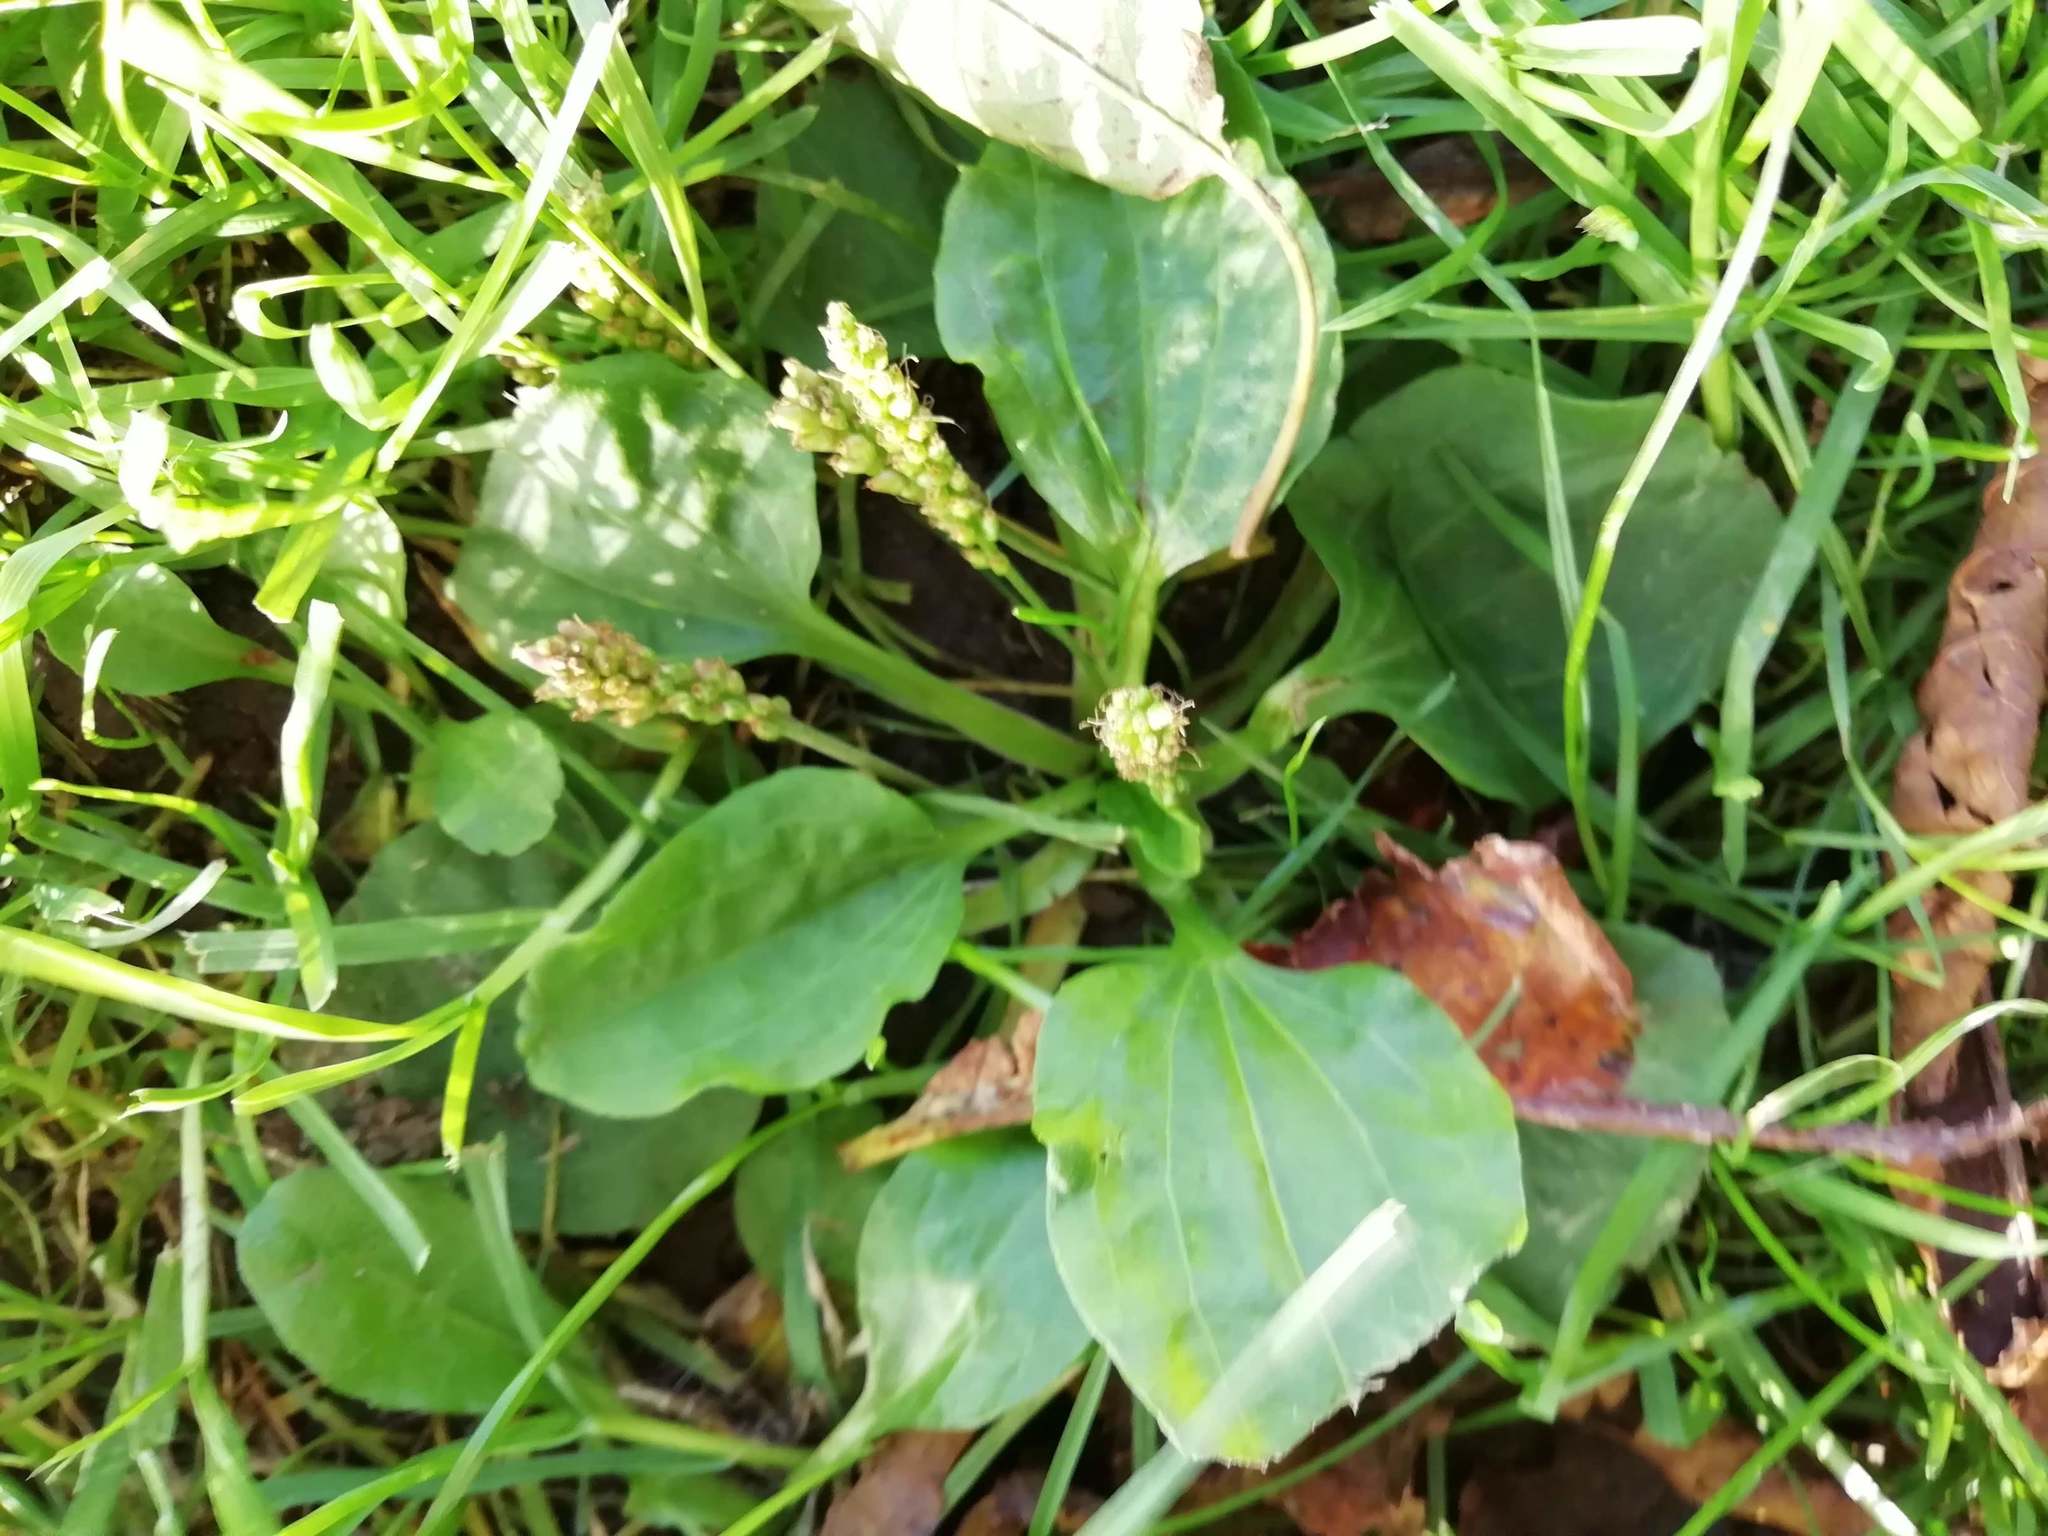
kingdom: Plantae
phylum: Tracheophyta
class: Magnoliopsida
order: Lamiales
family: Plantaginaceae
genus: Plantago
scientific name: Plantago major
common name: Common plantain
